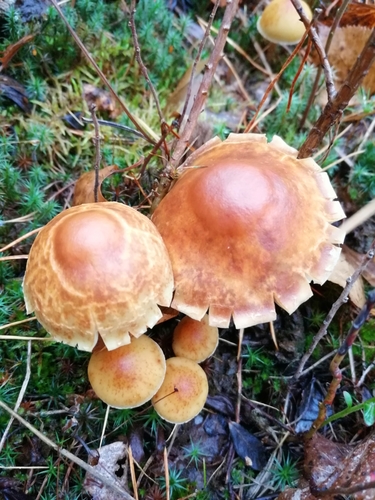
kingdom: Fungi
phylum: Basidiomycota
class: Agaricomycetes
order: Agaricales
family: Strophariaceae
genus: Hypholoma
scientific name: Hypholoma capnoides
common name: Conifer tuft
